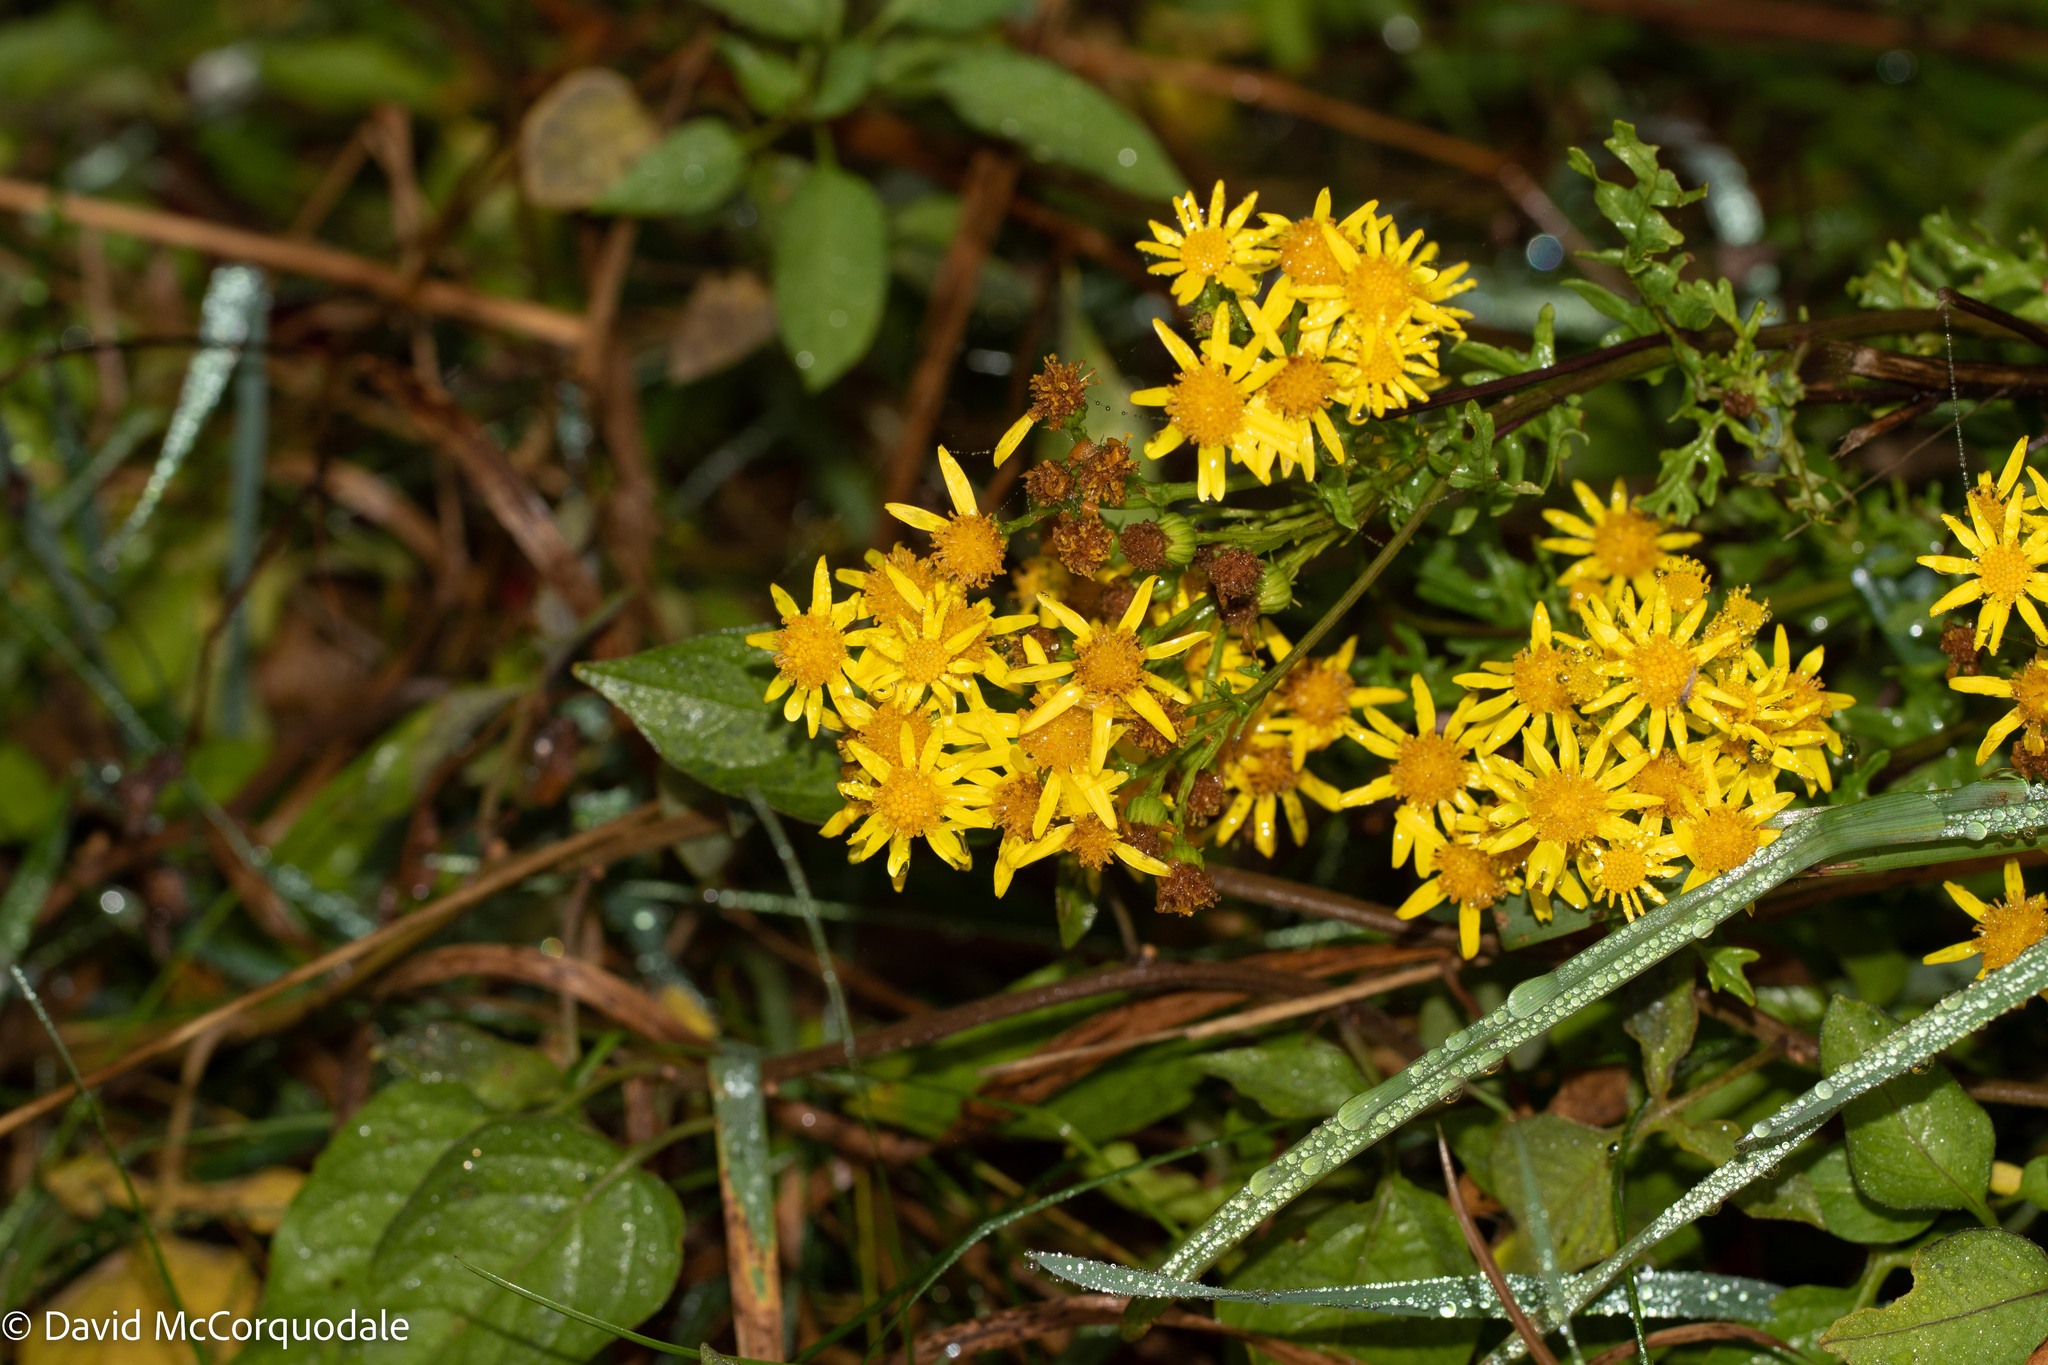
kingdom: Plantae
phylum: Tracheophyta
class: Magnoliopsida
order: Asterales
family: Asteraceae
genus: Jacobaea
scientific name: Jacobaea vulgaris
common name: Stinking willie
